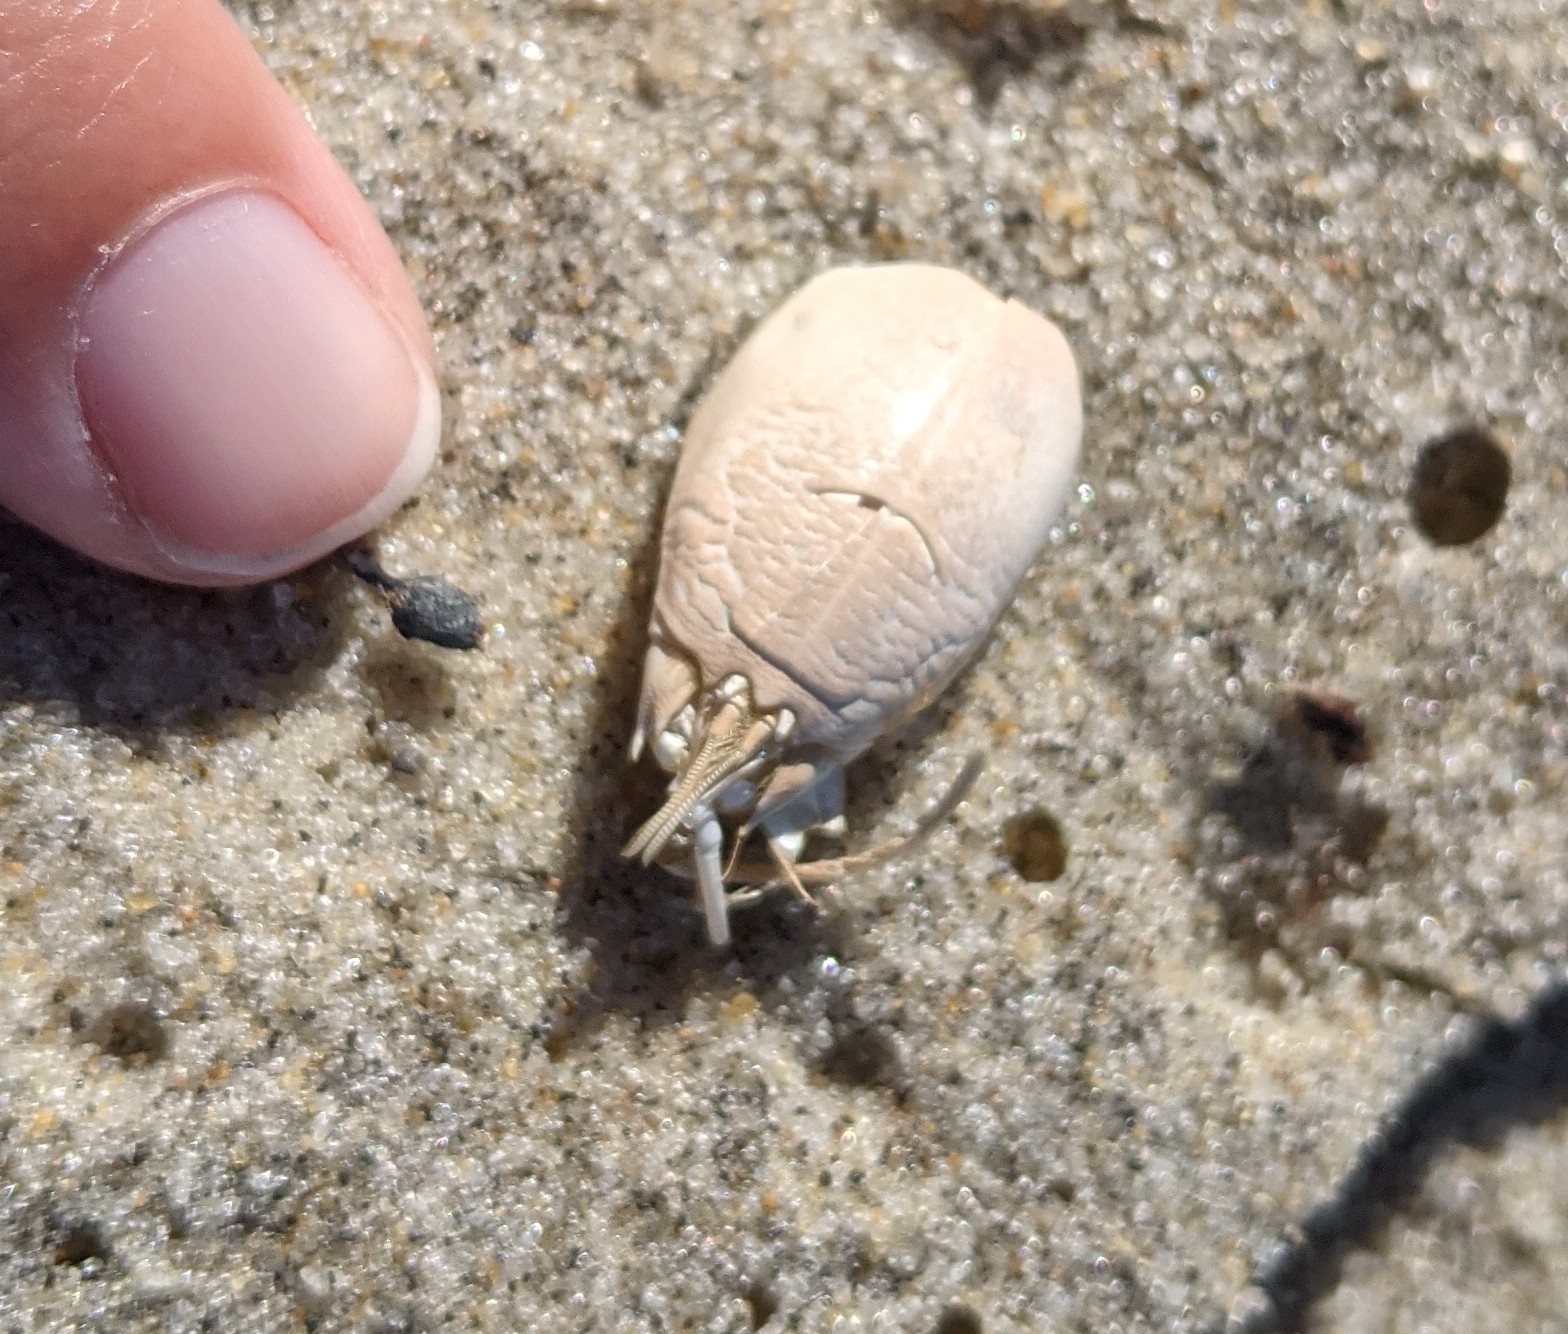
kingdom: Animalia
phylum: Arthropoda
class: Malacostraca
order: Decapoda
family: Hippidae
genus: Emerita
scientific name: Emerita talpoida
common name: Atlantic sand crab
